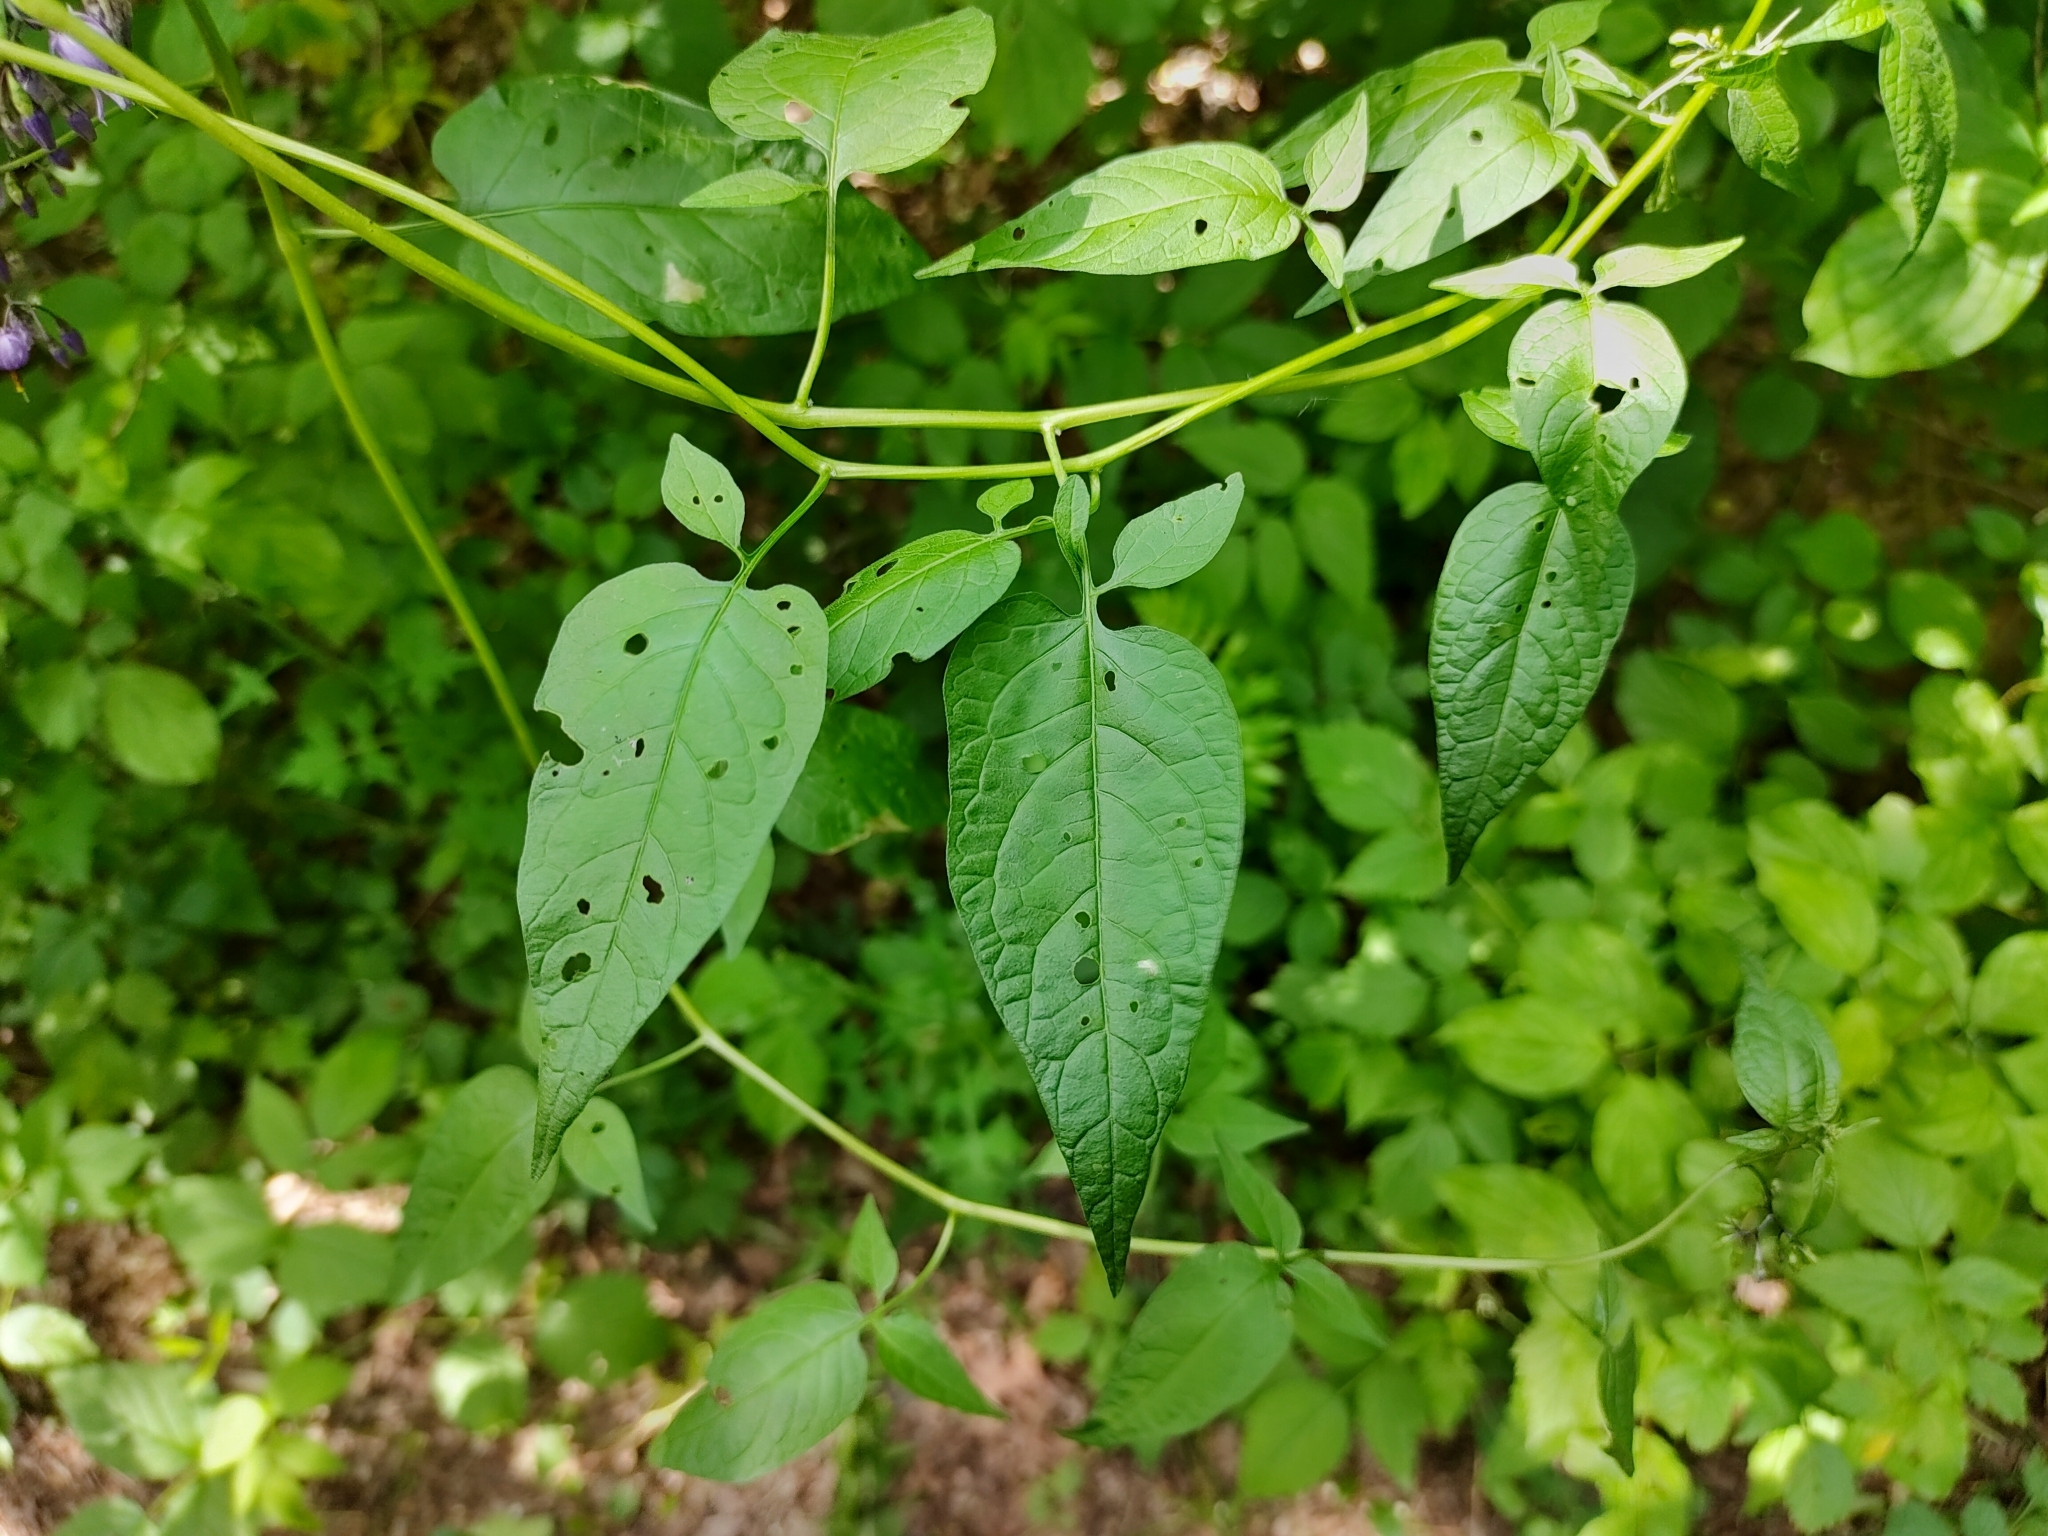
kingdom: Plantae
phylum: Tracheophyta
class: Magnoliopsida
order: Solanales
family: Solanaceae
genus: Solanum
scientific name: Solanum dulcamara
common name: Climbing nightshade
